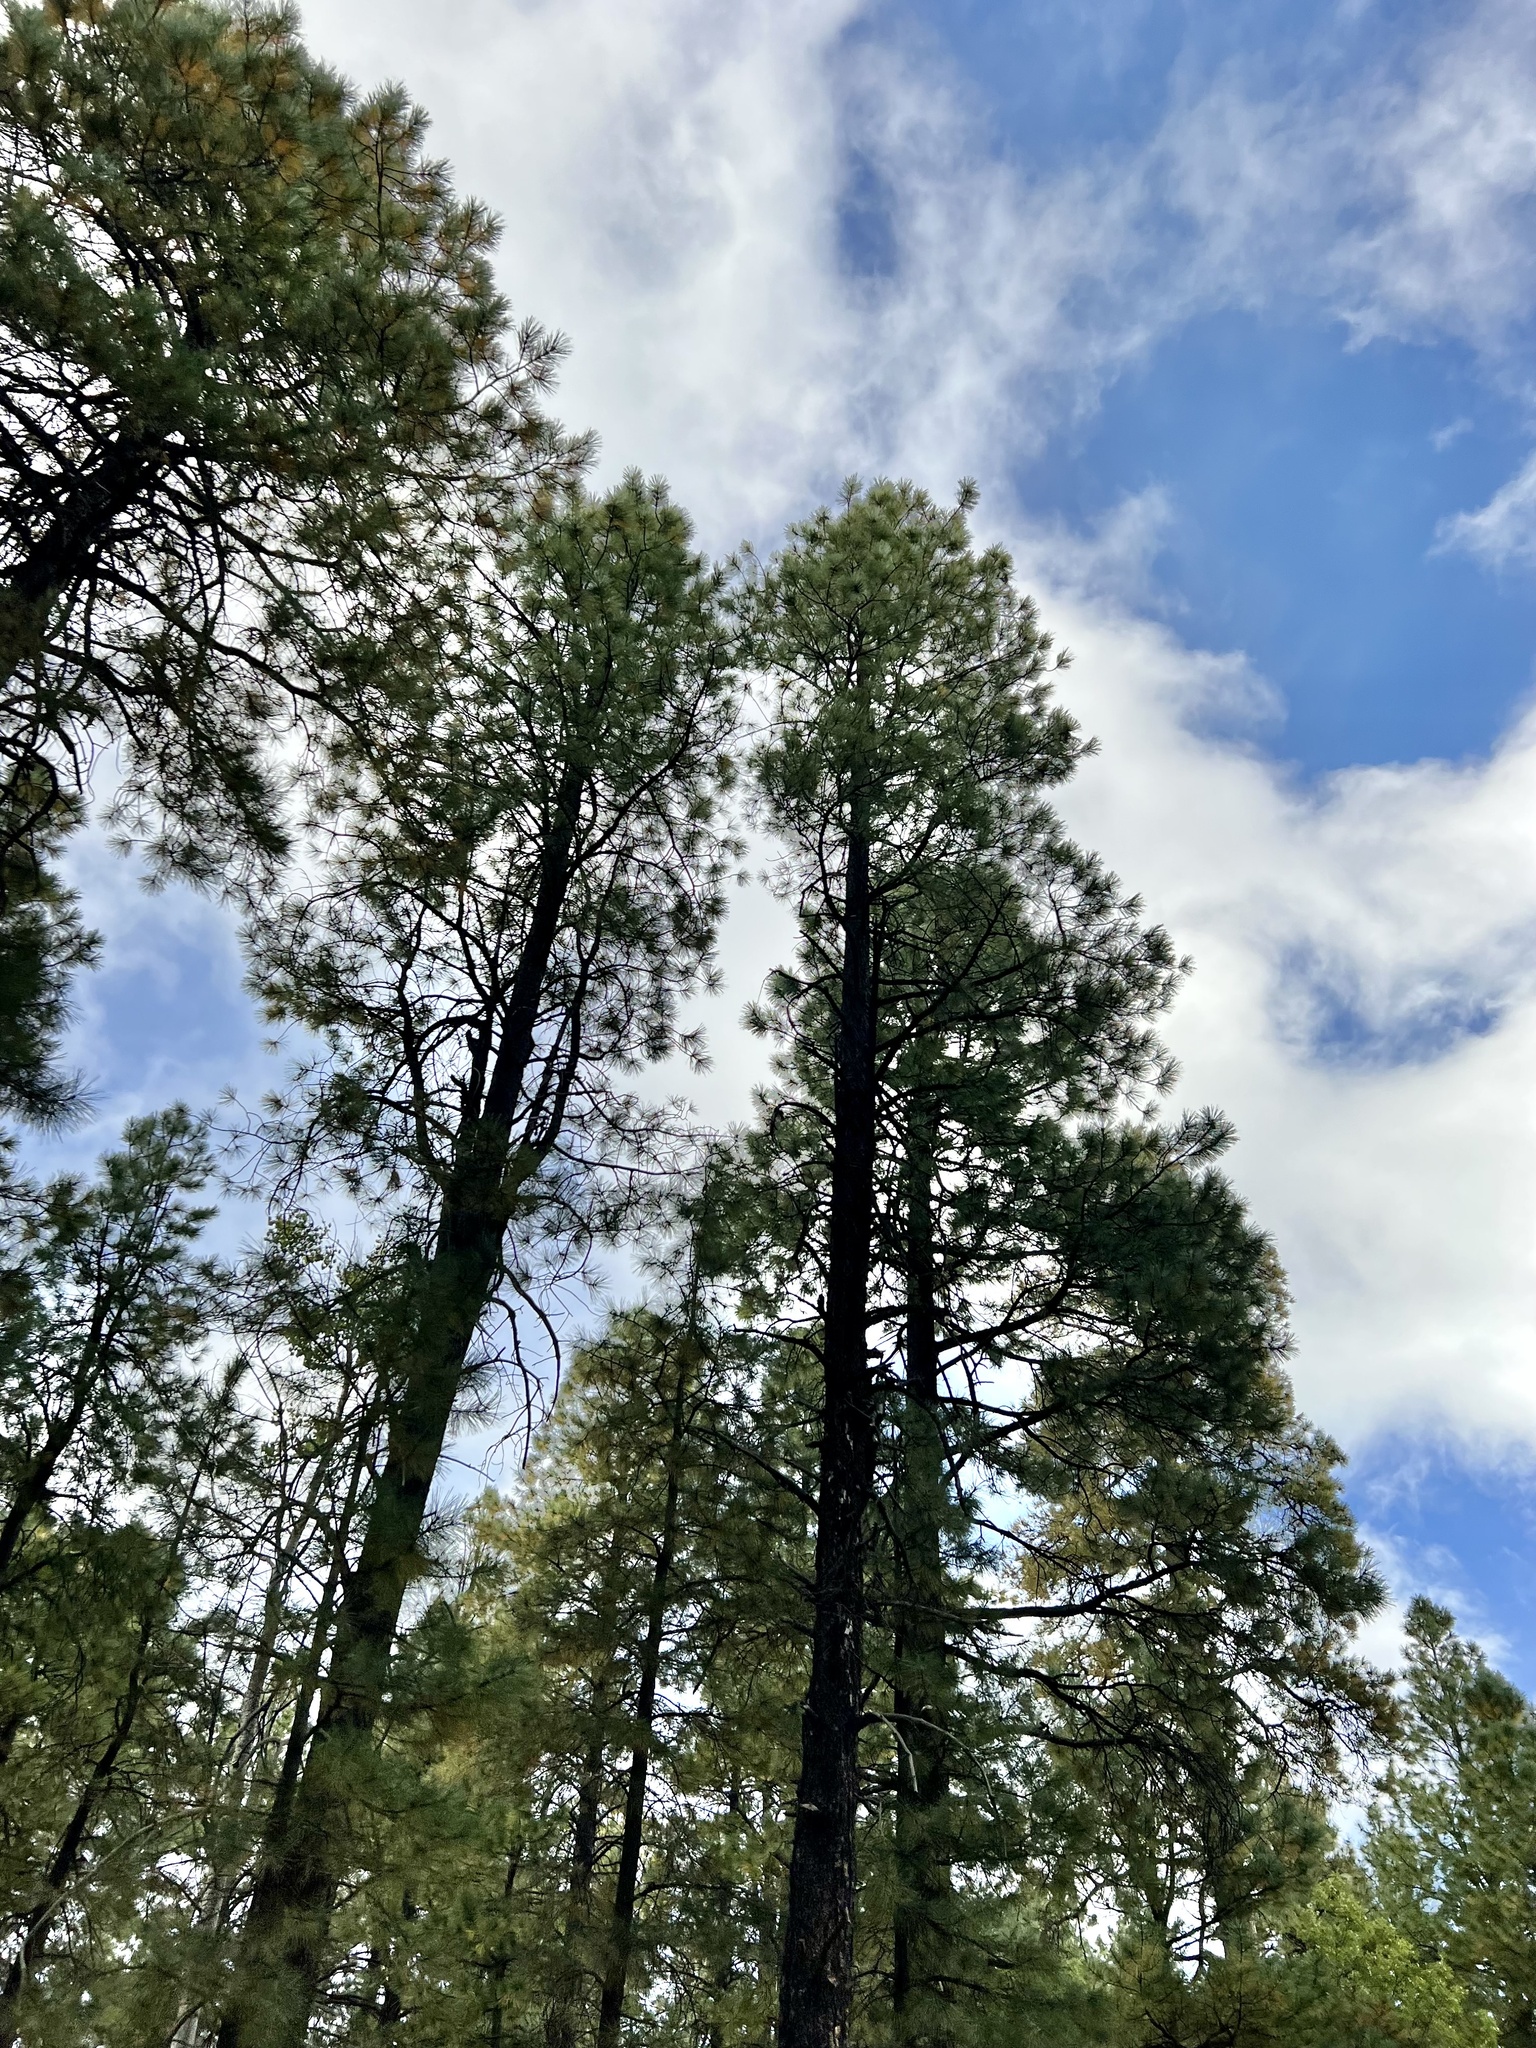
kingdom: Plantae
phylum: Tracheophyta
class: Pinopsida
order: Pinales
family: Pinaceae
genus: Pinus
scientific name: Pinus ponderosa
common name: Western yellow-pine
